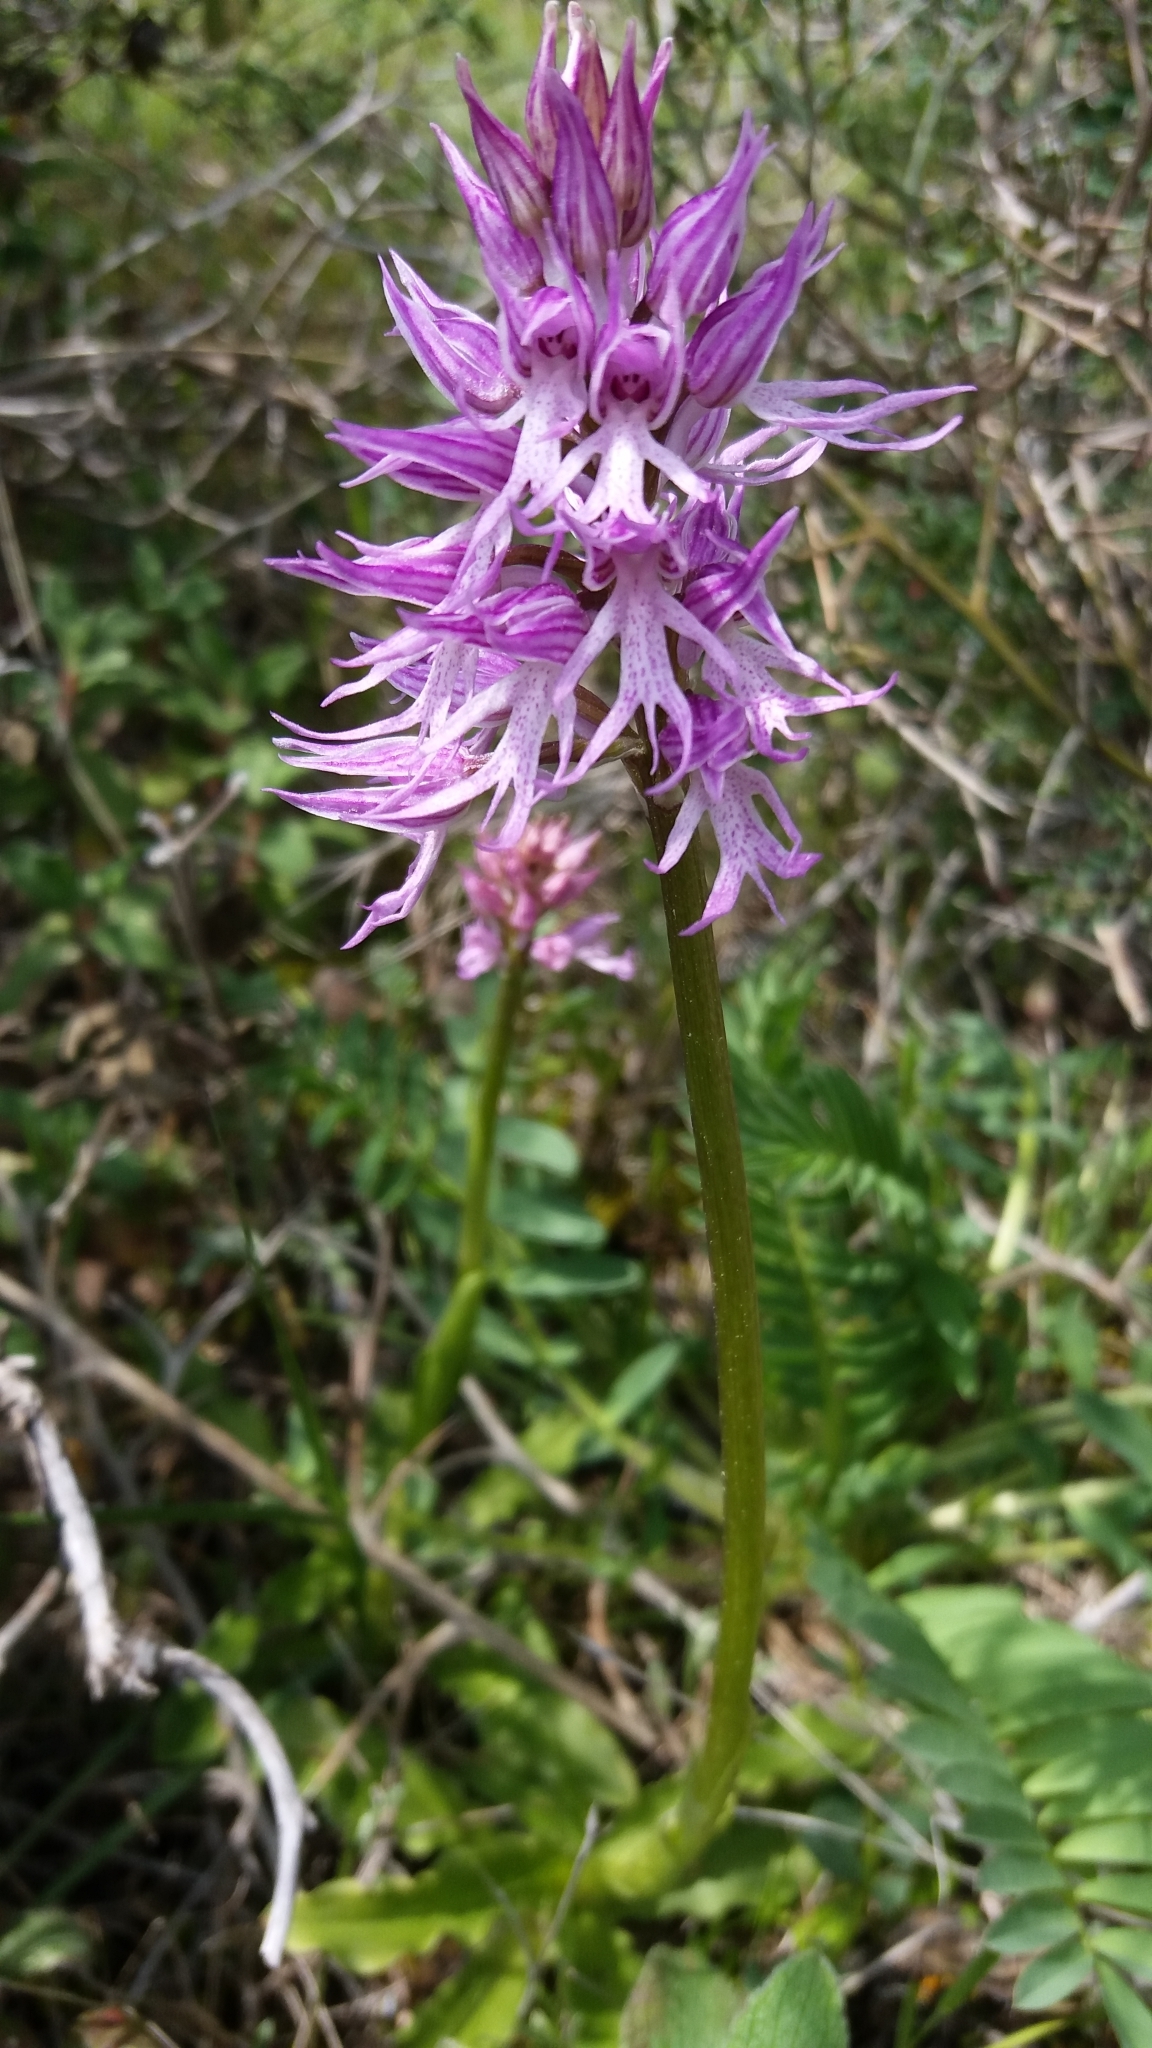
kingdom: Plantae
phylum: Tracheophyta
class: Liliopsida
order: Asparagales
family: Orchidaceae
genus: Orchis
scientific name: Orchis italica
